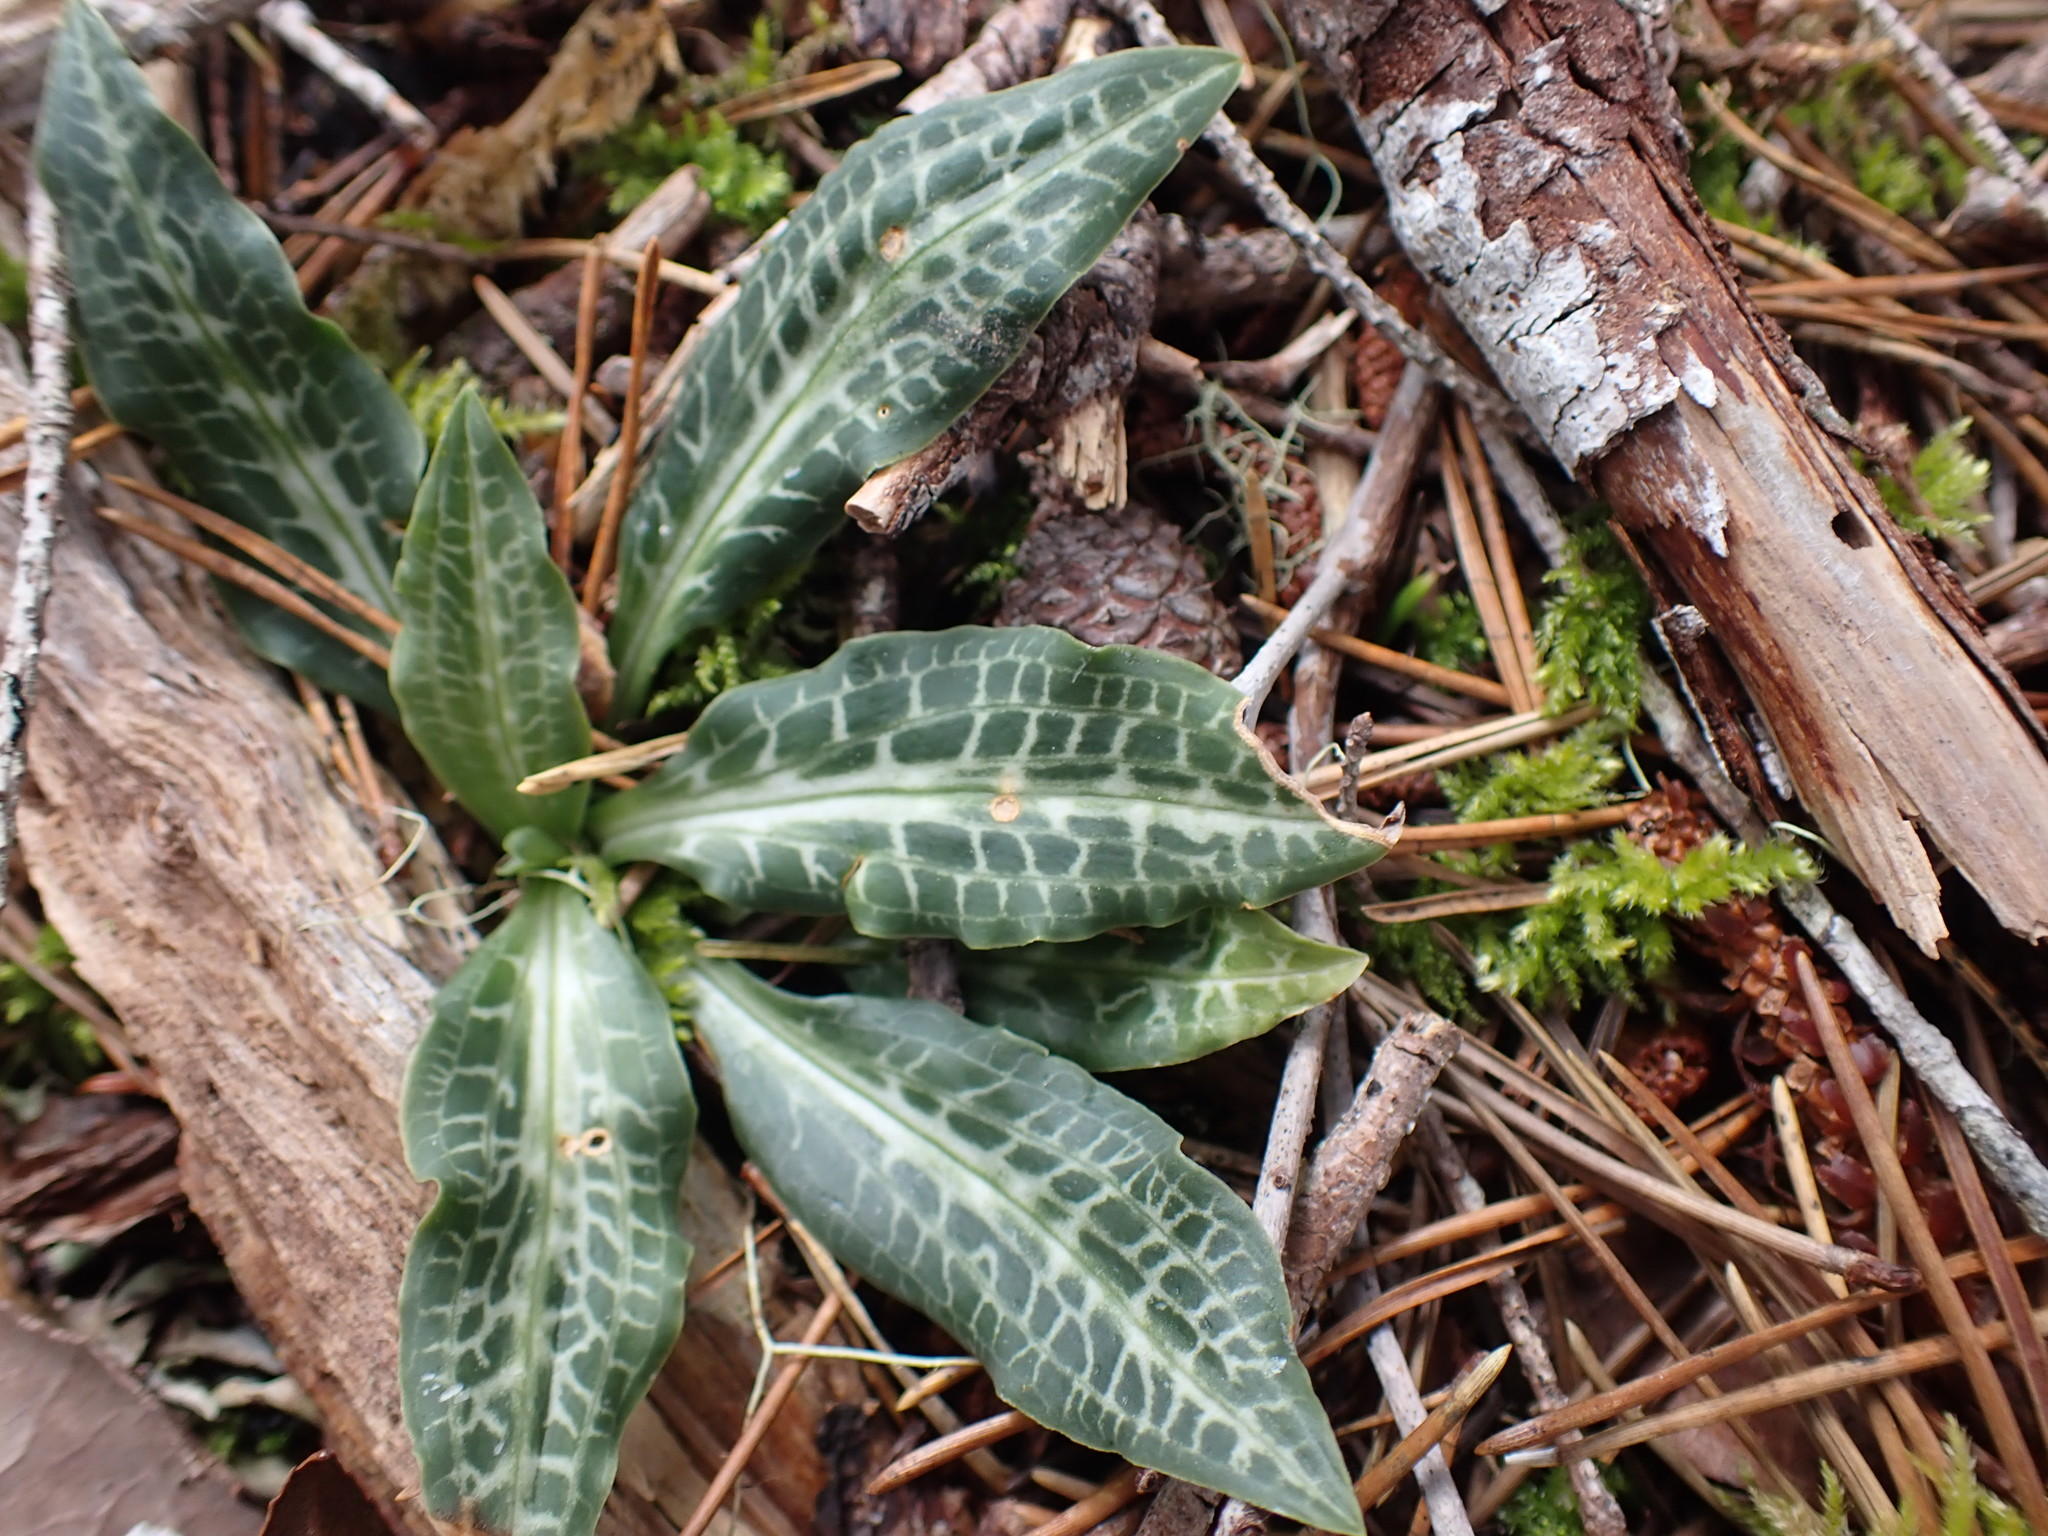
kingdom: Plantae
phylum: Tracheophyta
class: Liliopsida
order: Asparagales
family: Orchidaceae
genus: Goodyera
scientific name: Goodyera oblongifolia
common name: Giant rattlesnake-plantain
